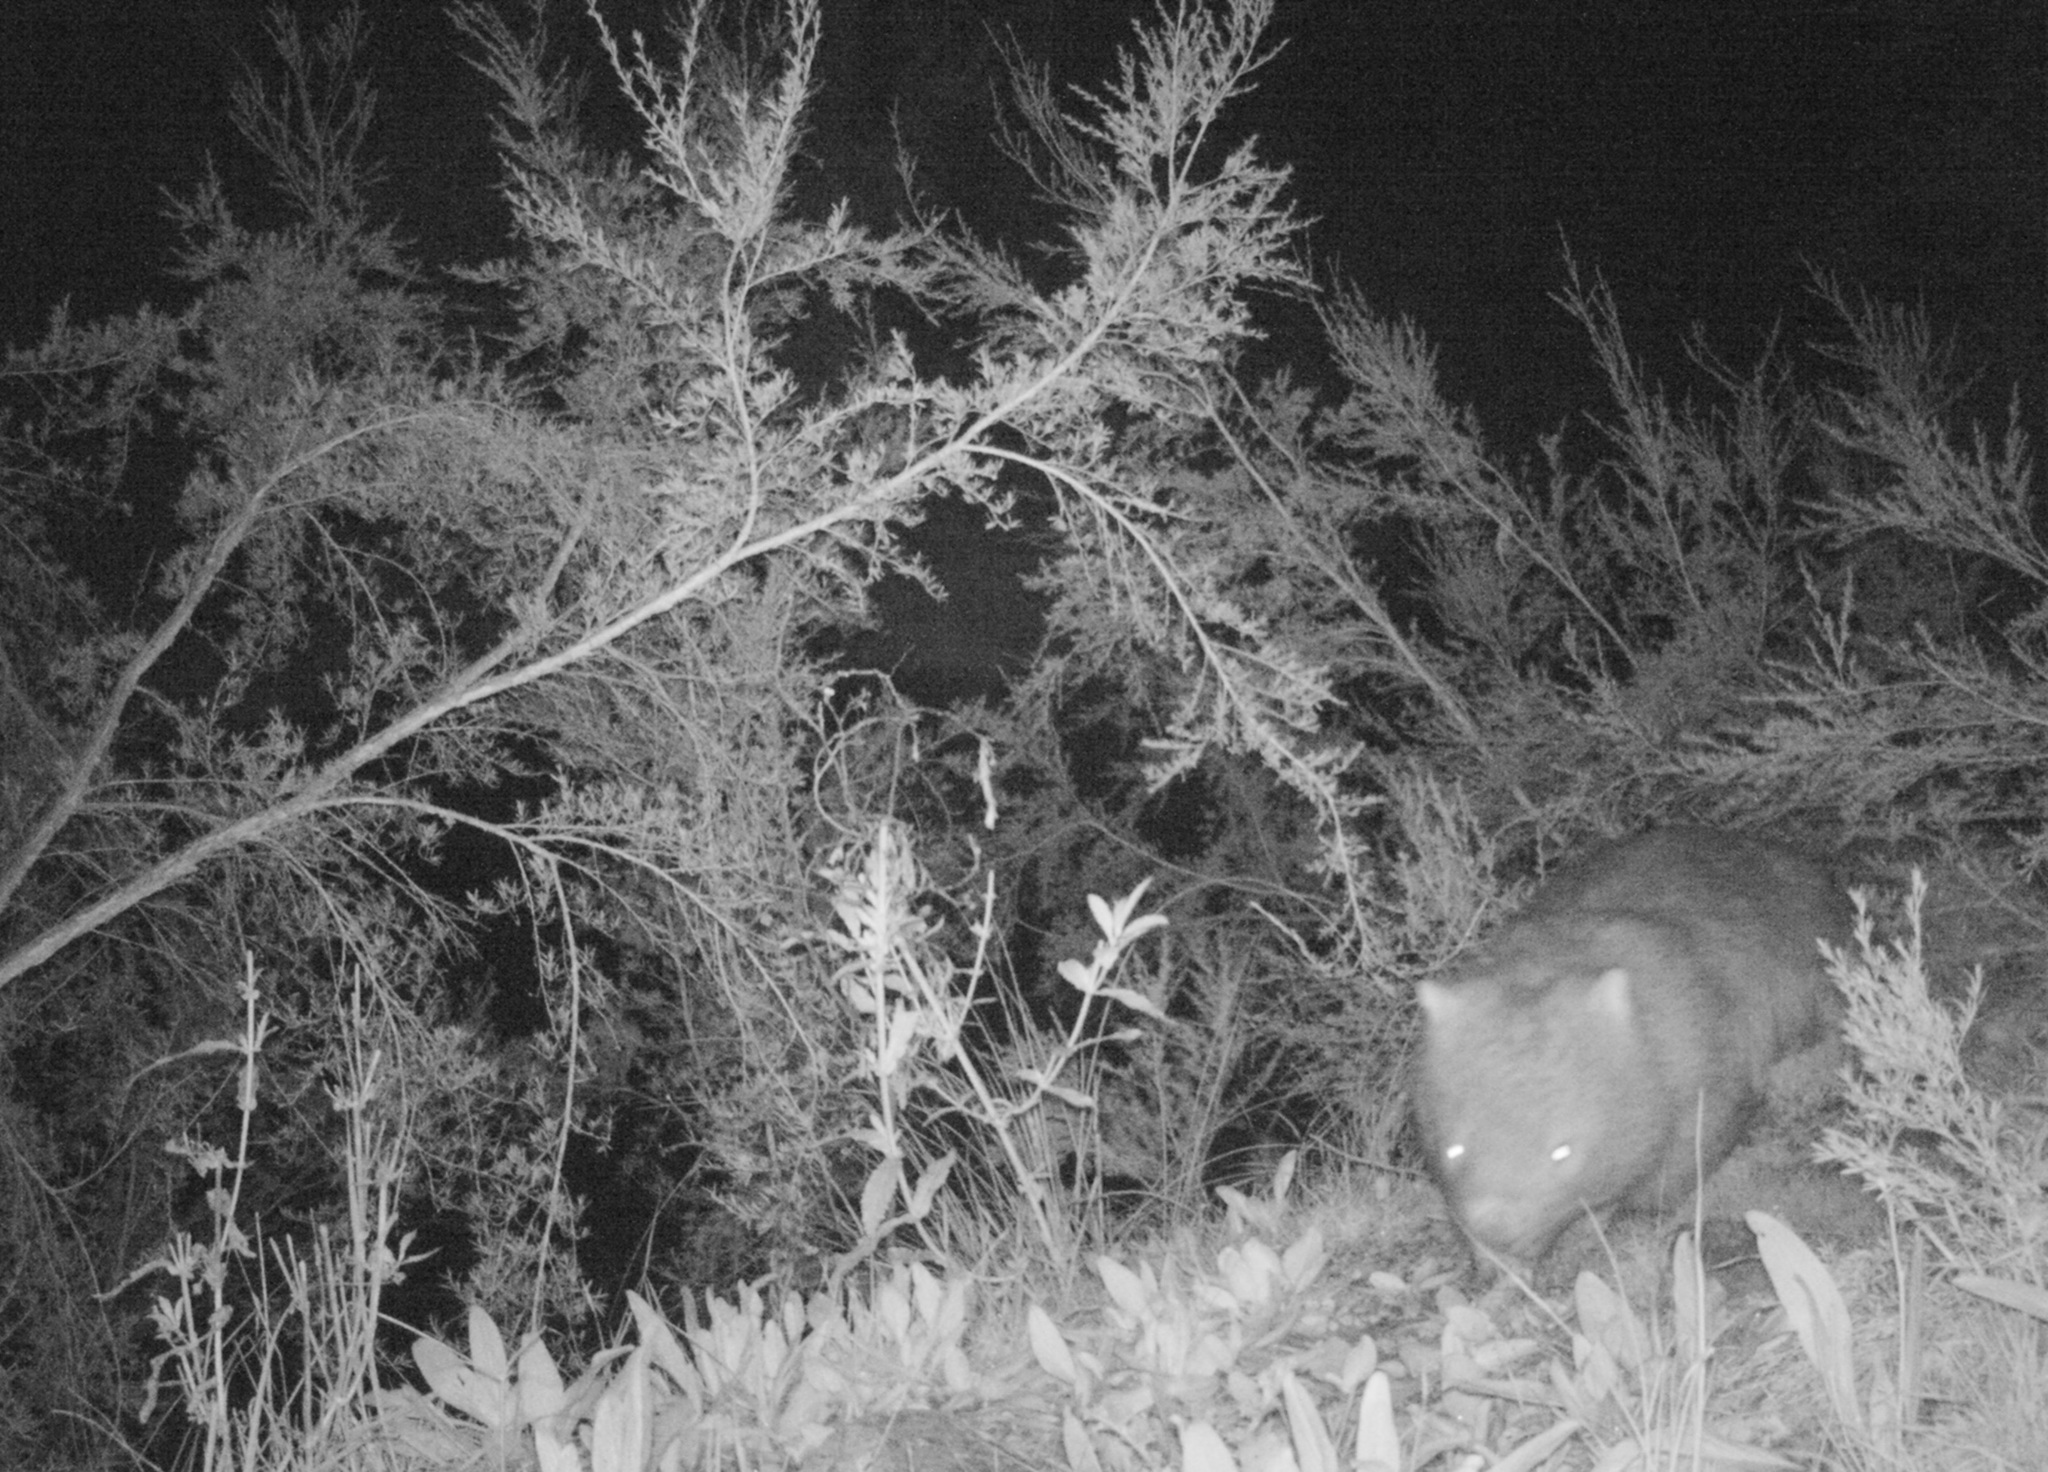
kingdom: Animalia
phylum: Chordata
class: Mammalia
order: Diprotodontia
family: Vombatidae
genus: Vombatus
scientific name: Vombatus ursinus
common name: Common wombat
